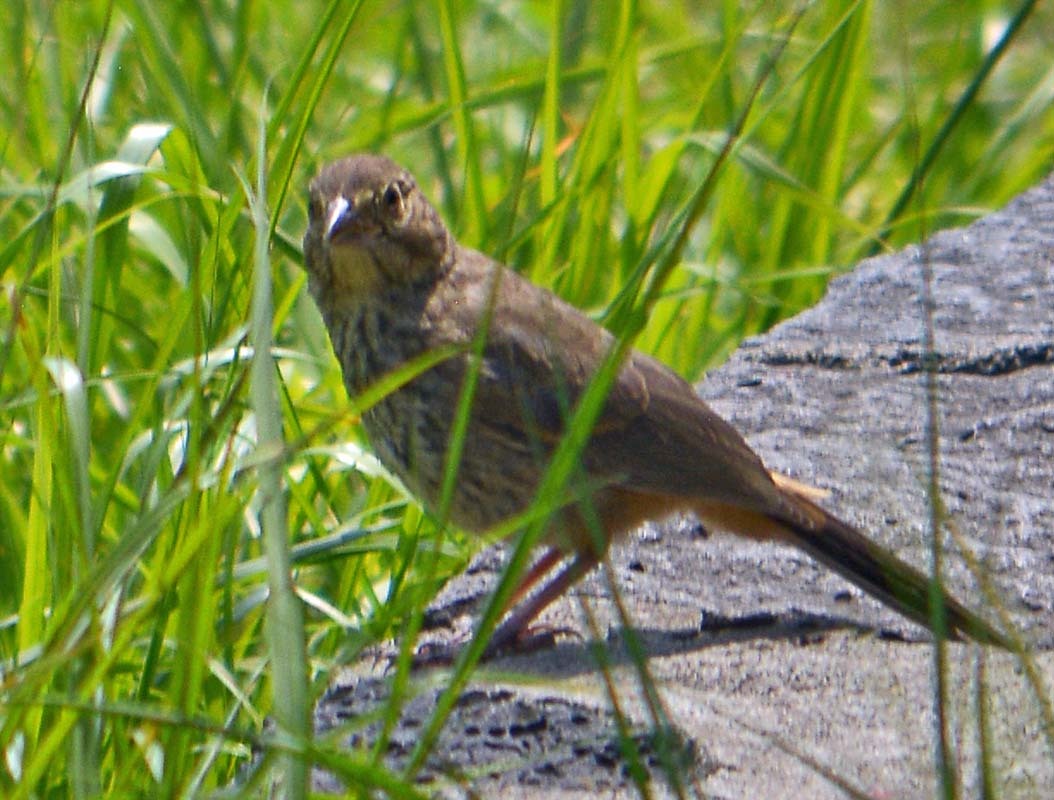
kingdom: Animalia
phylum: Chordata
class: Aves
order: Passeriformes
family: Passerellidae
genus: Melozone
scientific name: Melozone fusca
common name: Canyon towhee
